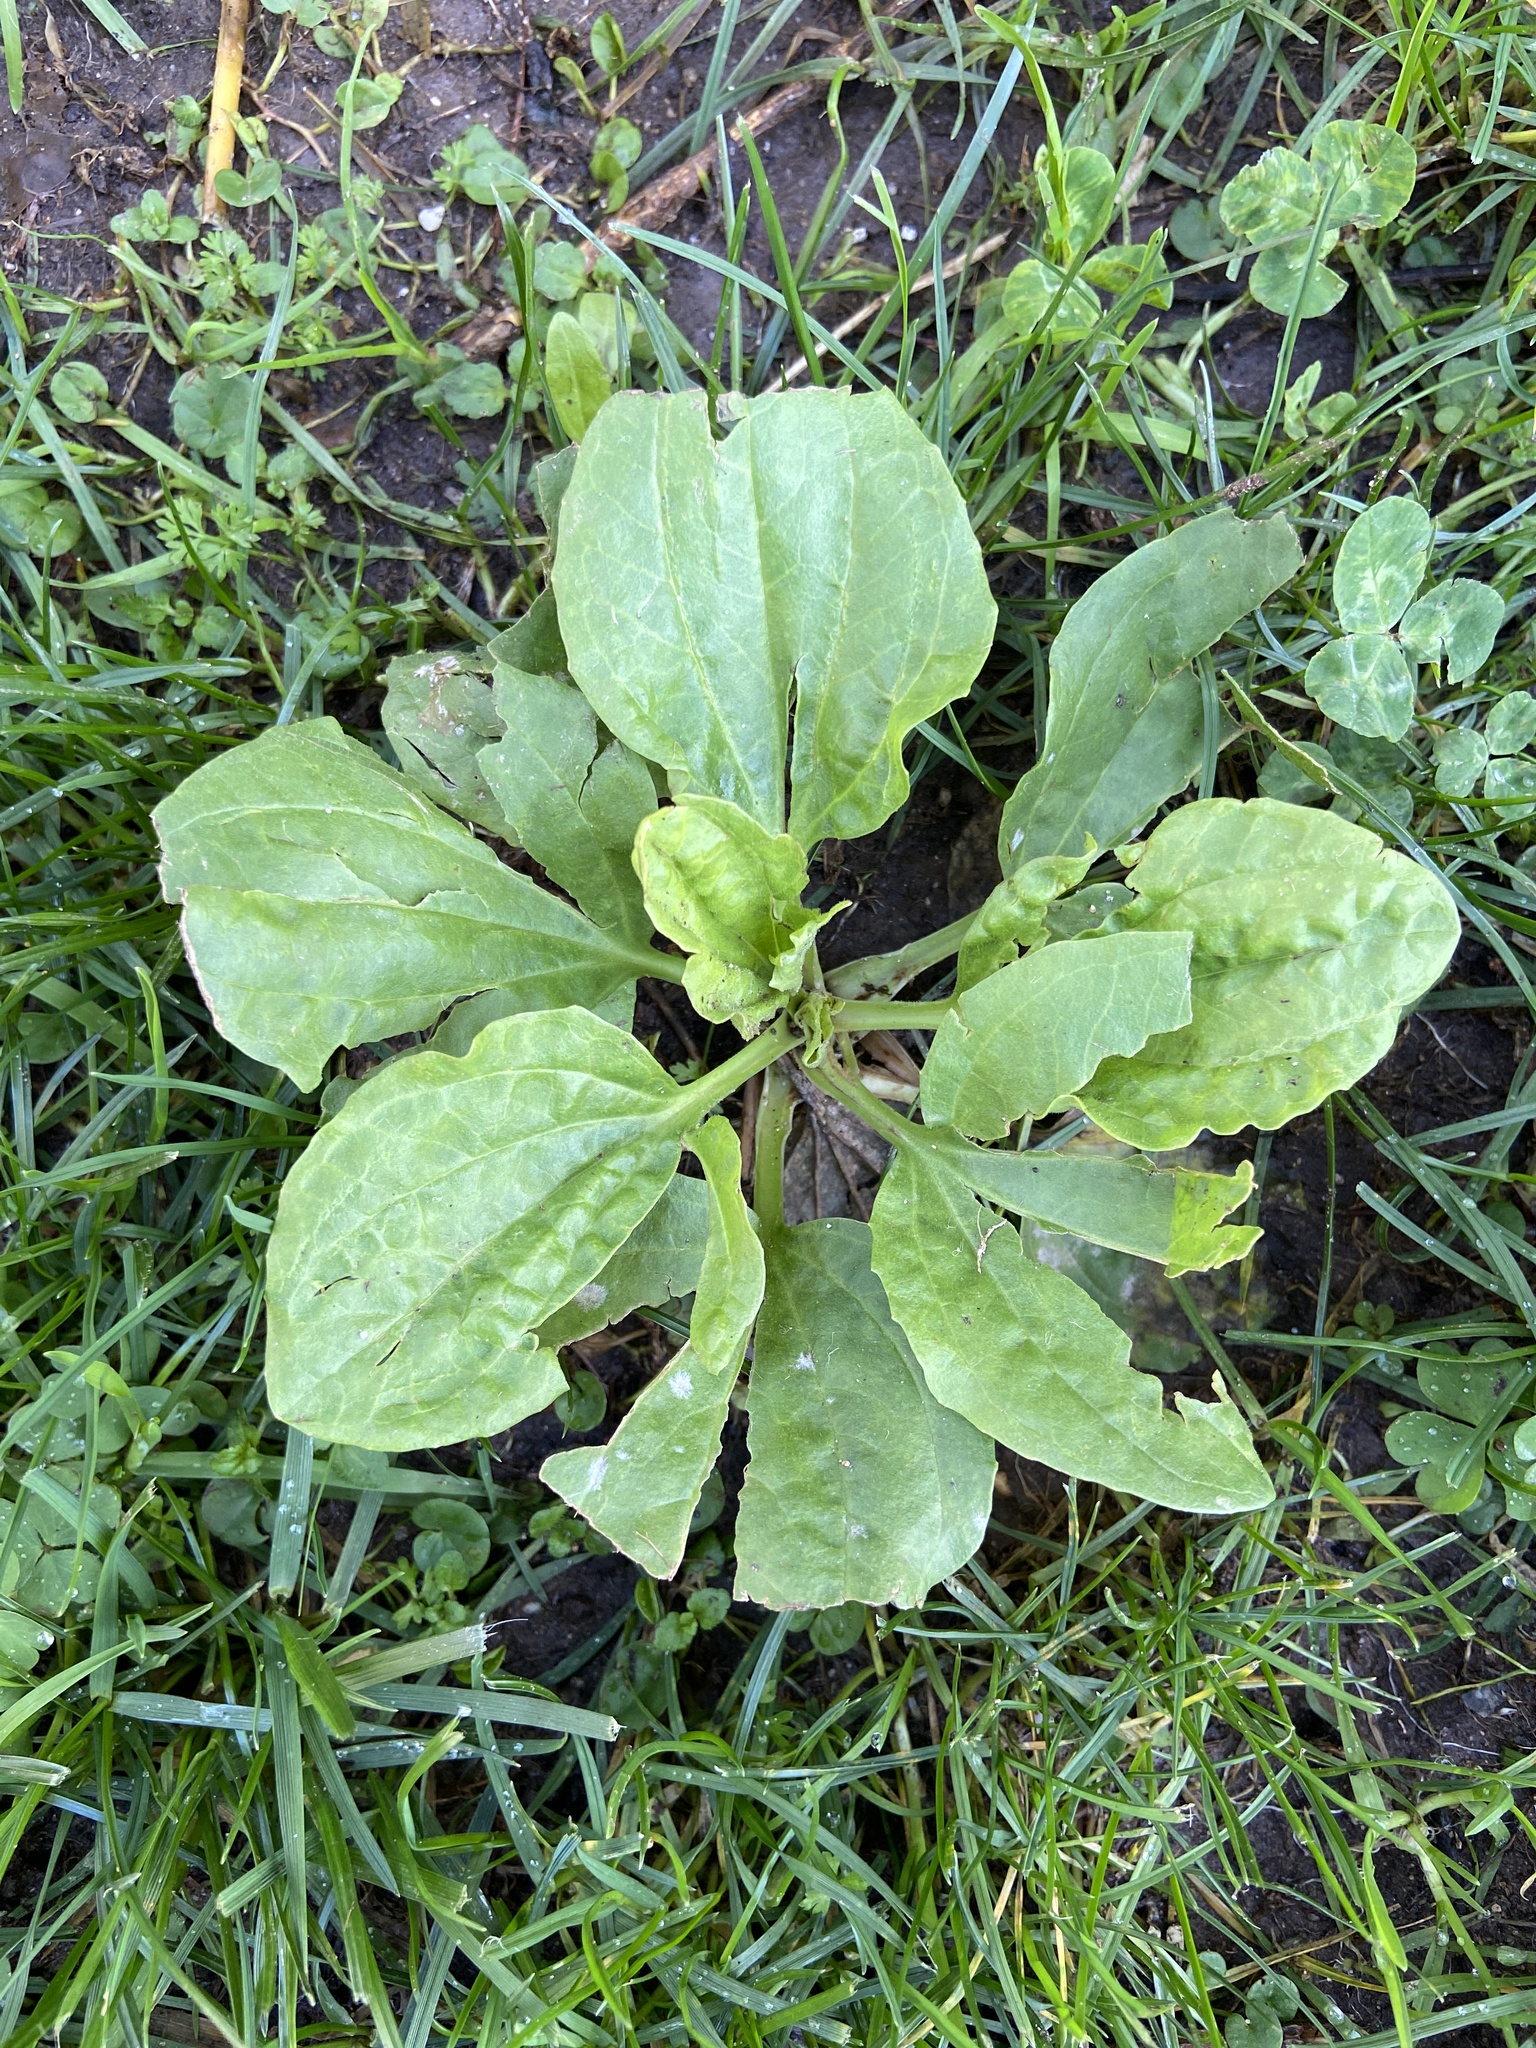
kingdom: Plantae
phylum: Tracheophyta
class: Magnoliopsida
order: Lamiales
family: Plantaginaceae
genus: Plantago
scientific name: Plantago major
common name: Common plantain
